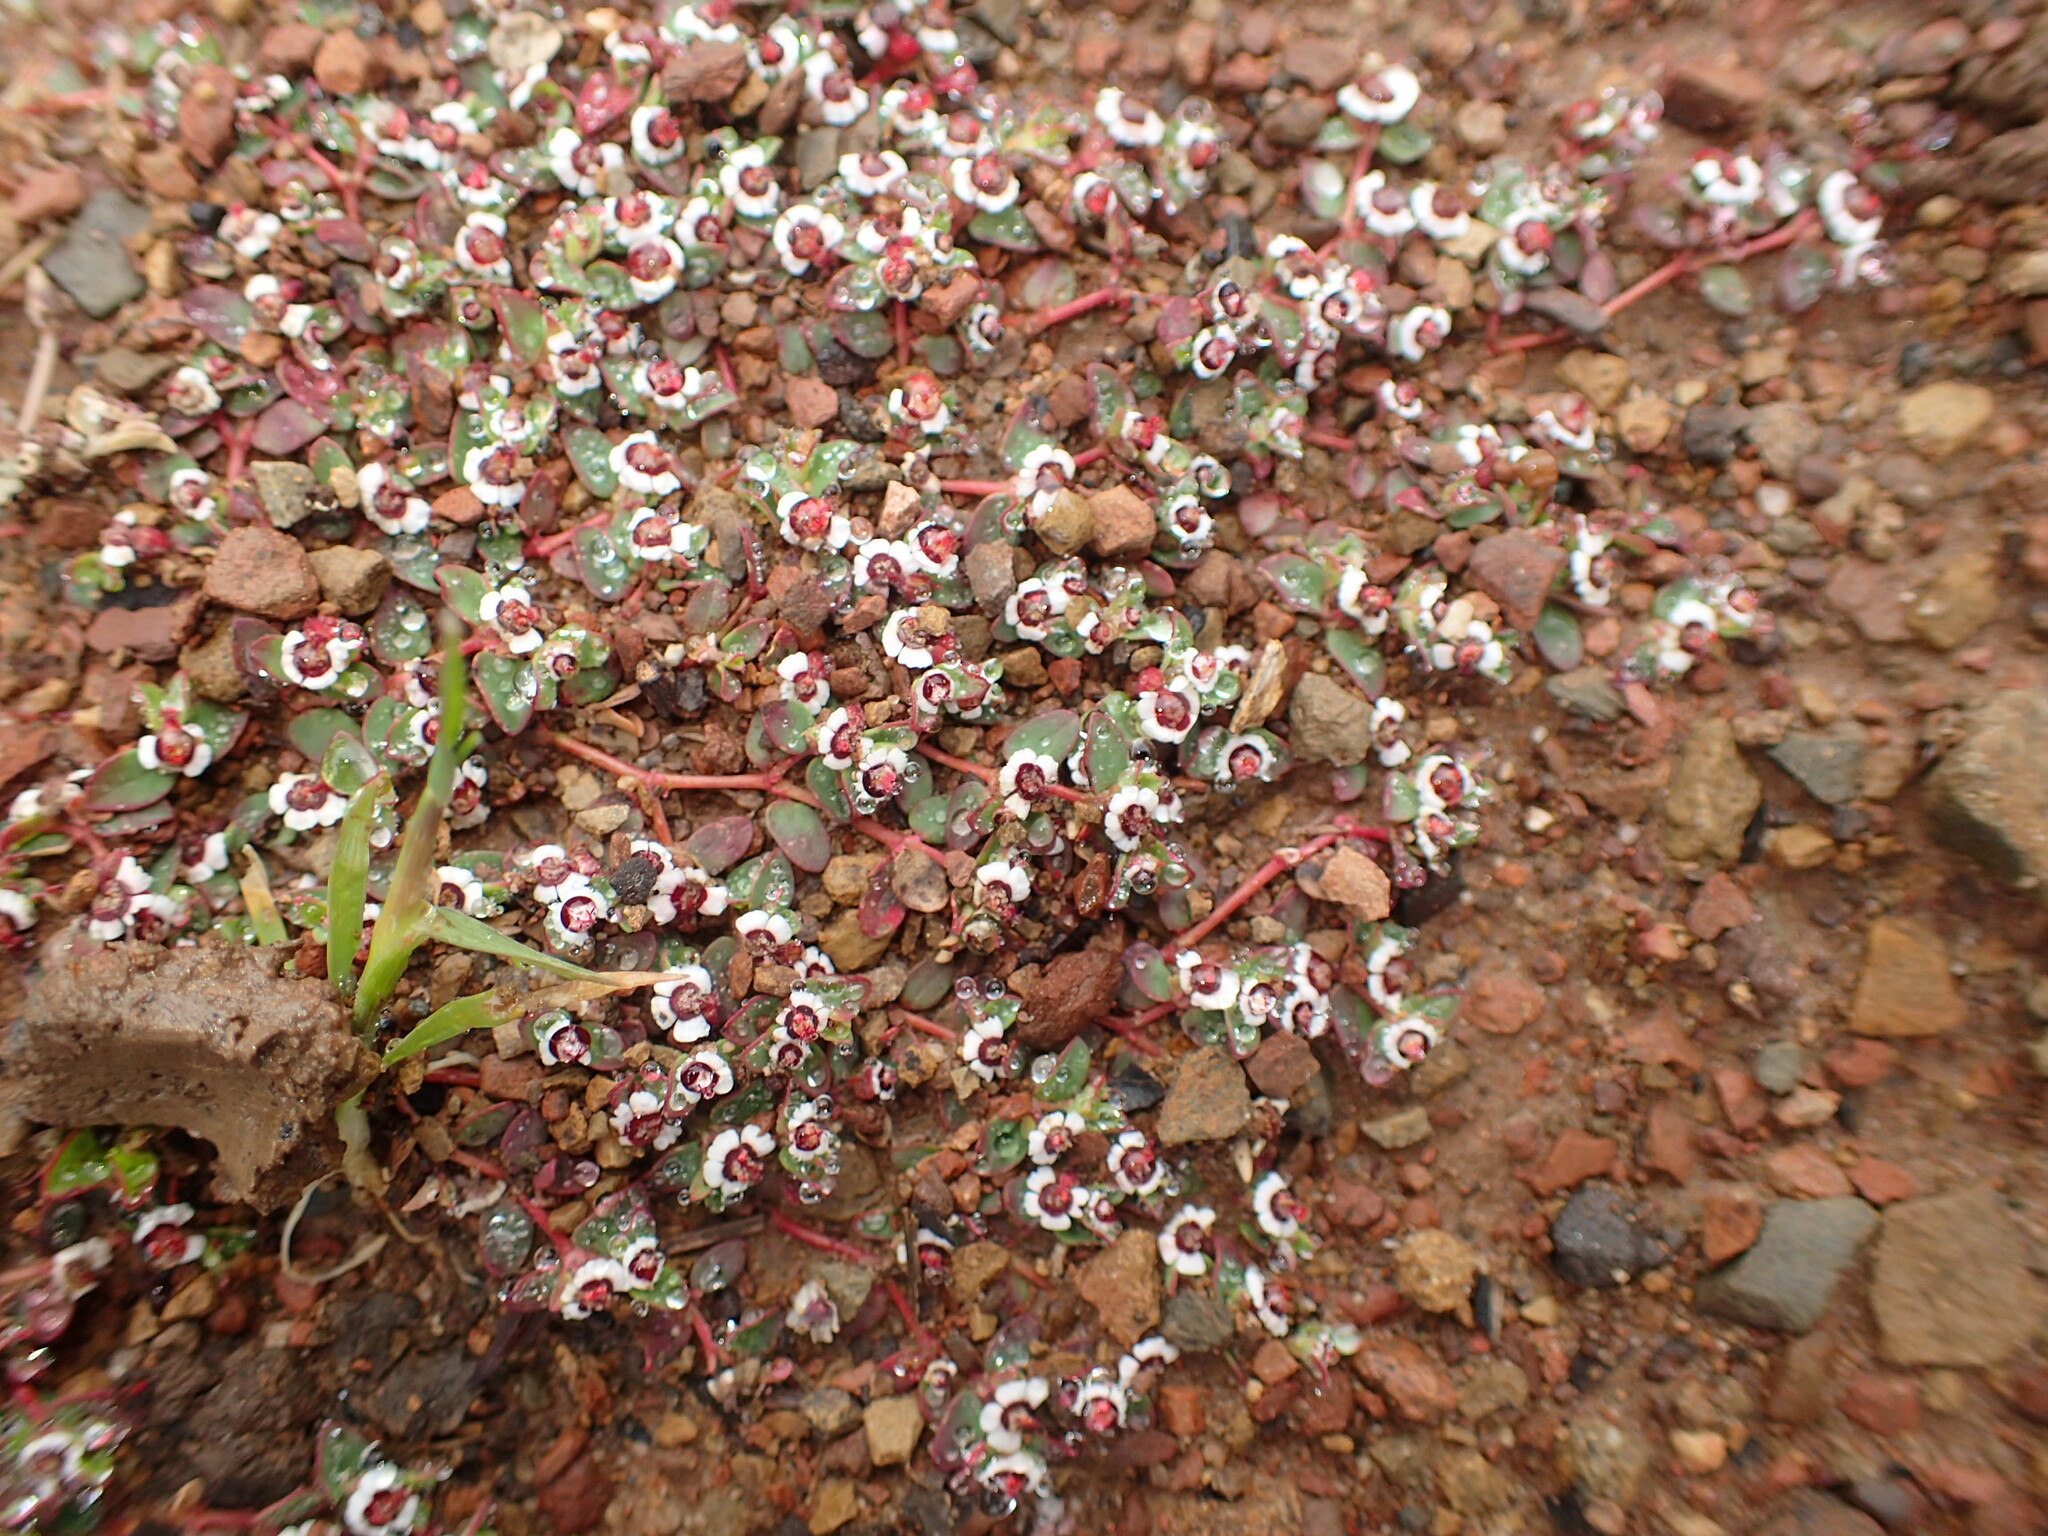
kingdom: Plantae
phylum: Tracheophyta
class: Magnoliopsida
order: Malpighiales
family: Euphorbiaceae
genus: Euphorbia
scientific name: Euphorbia polycarpa
